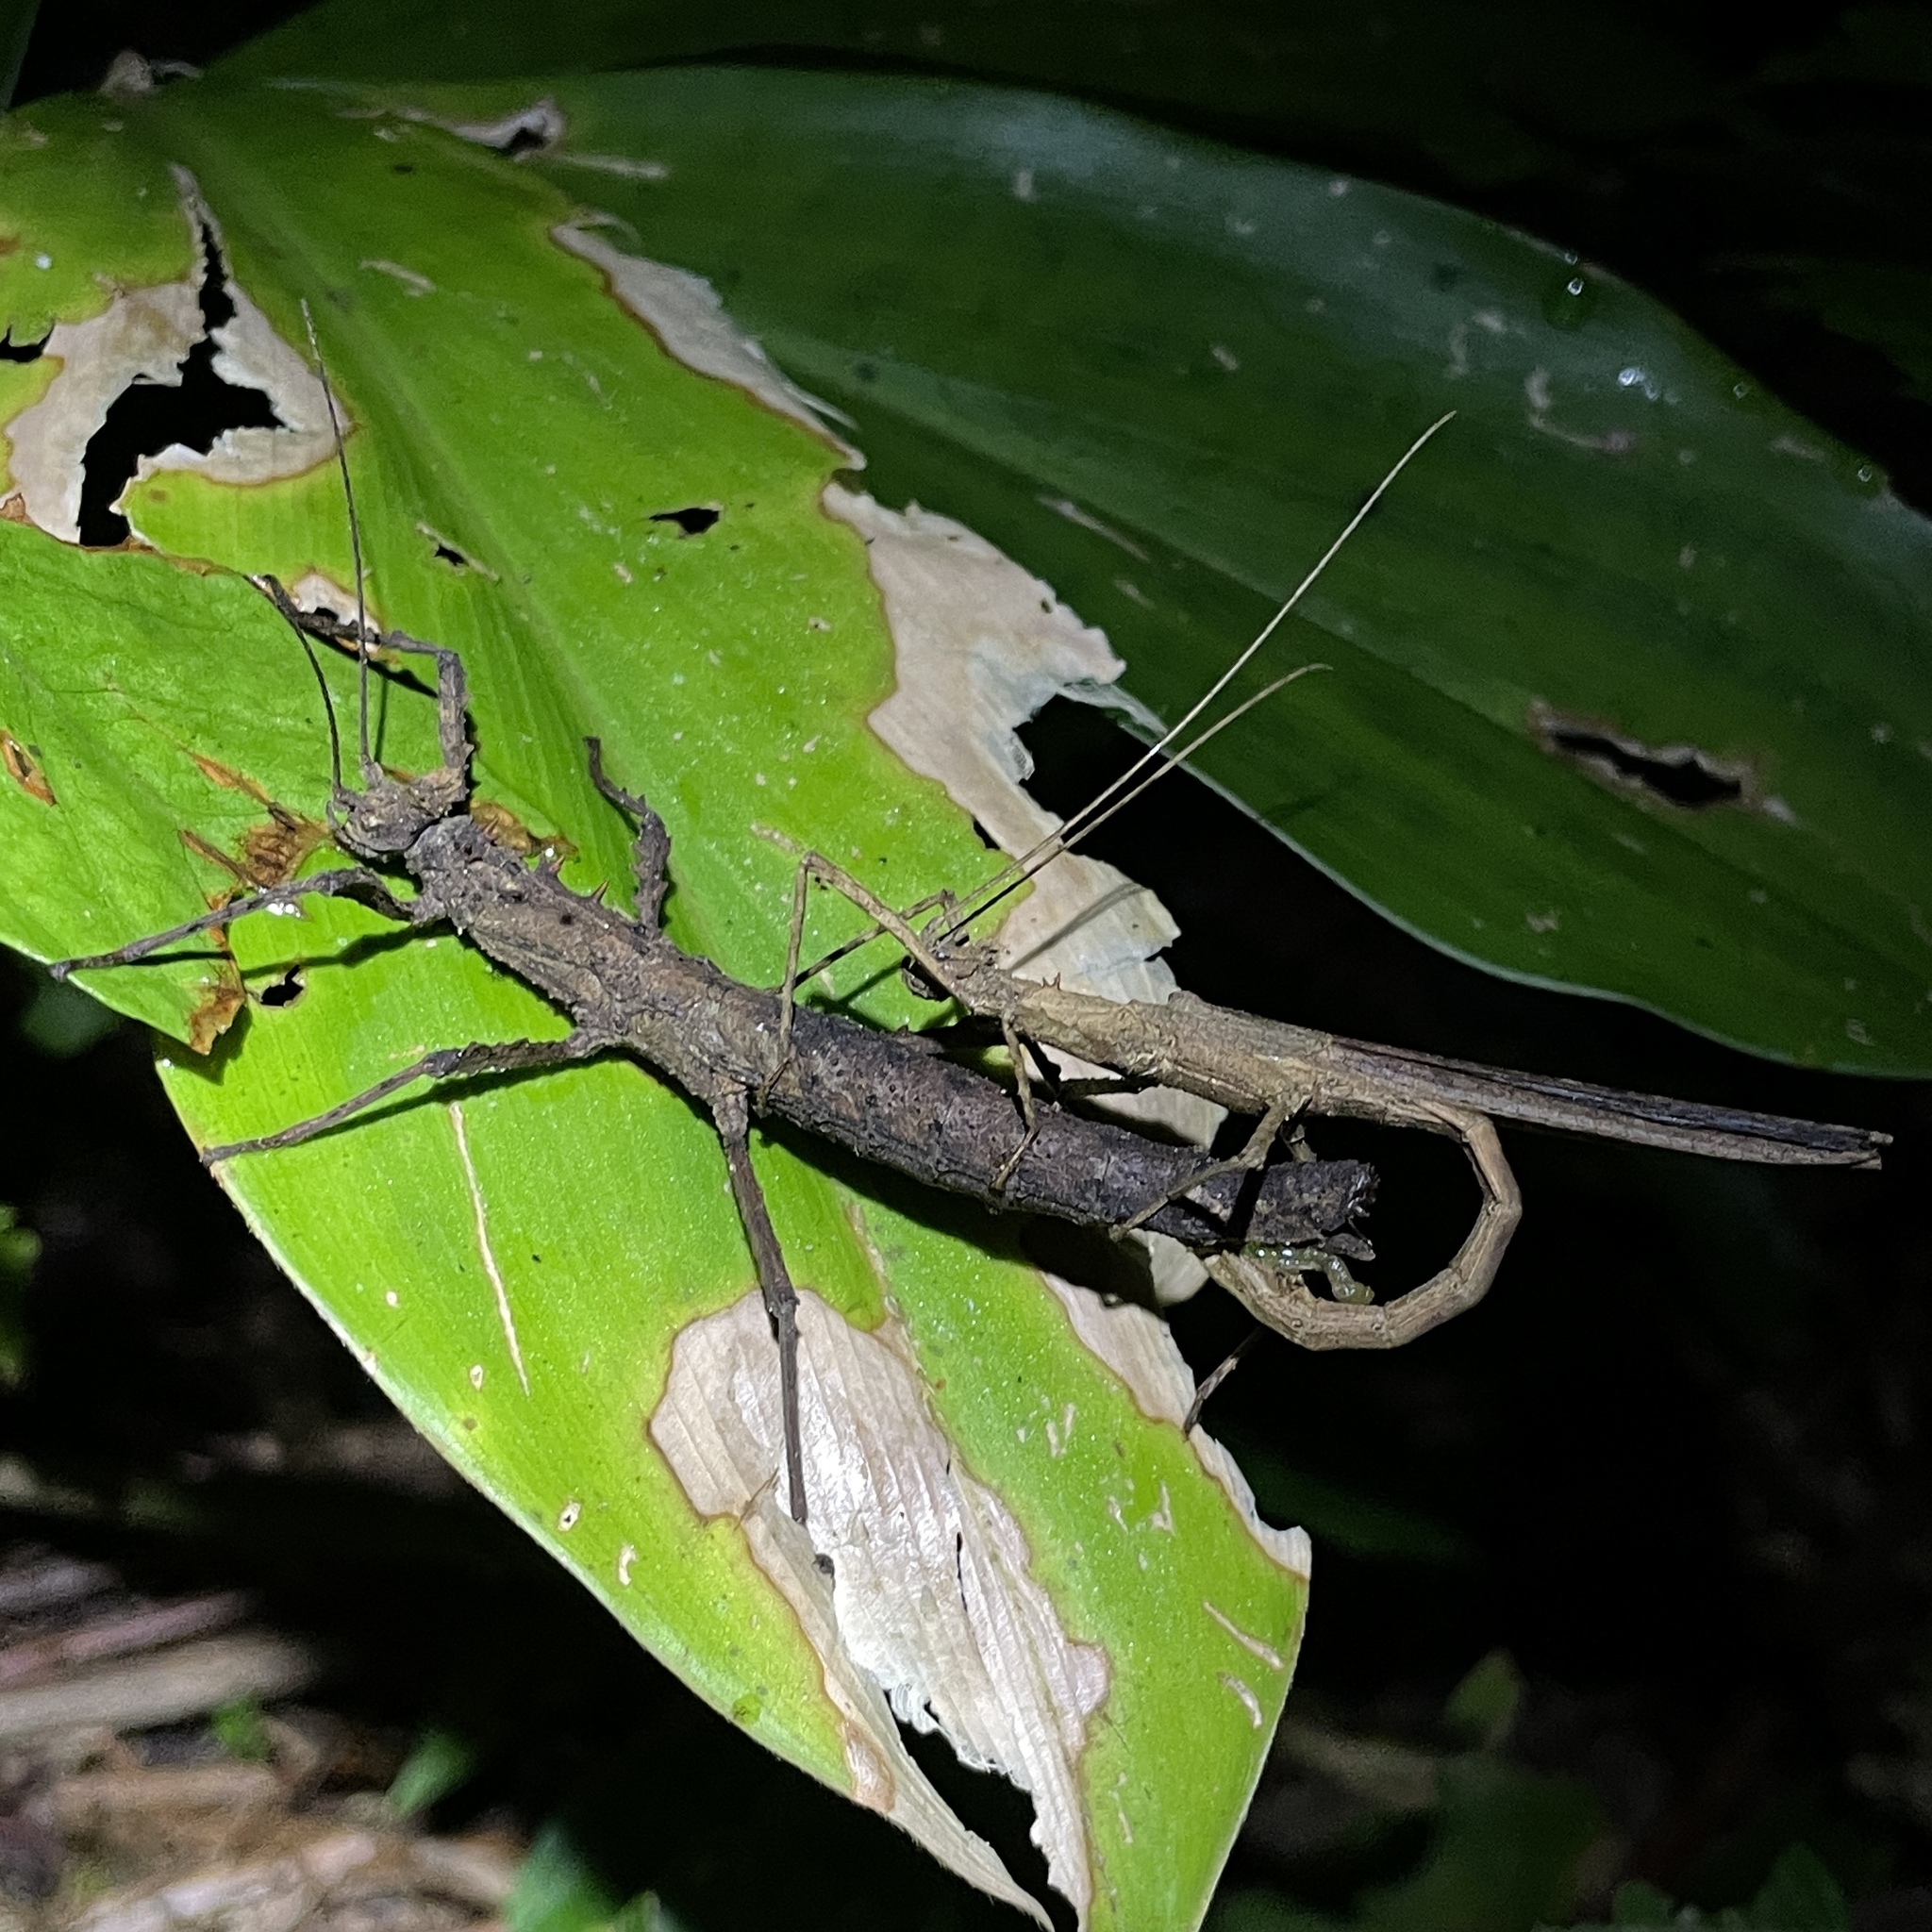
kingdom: Animalia
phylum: Arthropoda
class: Insecta
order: Phasmida
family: Pseudophasmatidae
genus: Creoxylus
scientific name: Creoxylus spinosus
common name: Trinidad log stick insect
